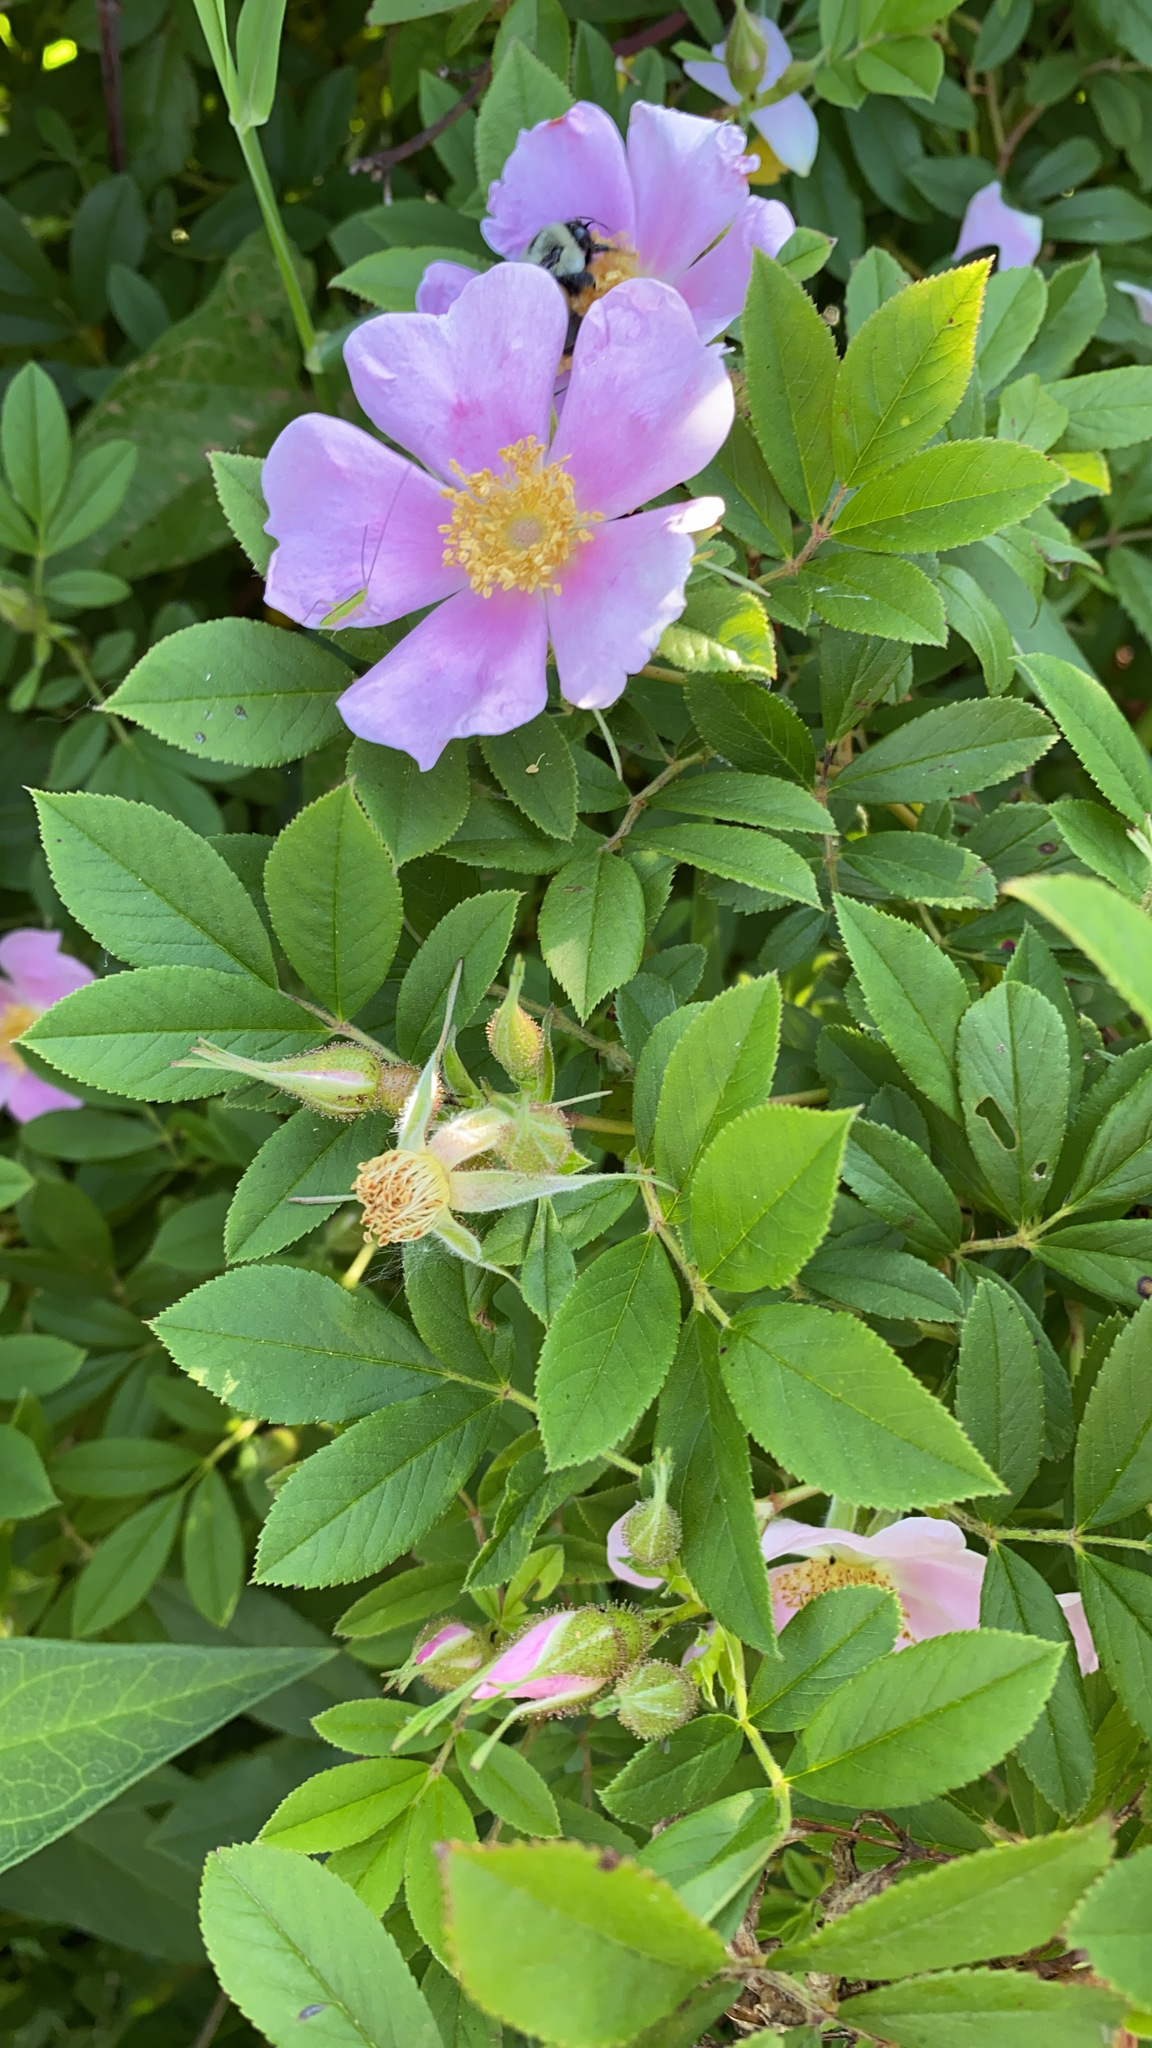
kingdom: Plantae
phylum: Tracheophyta
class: Magnoliopsida
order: Rosales
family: Rosaceae
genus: Rosa
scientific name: Rosa palustris
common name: Swamp rose
